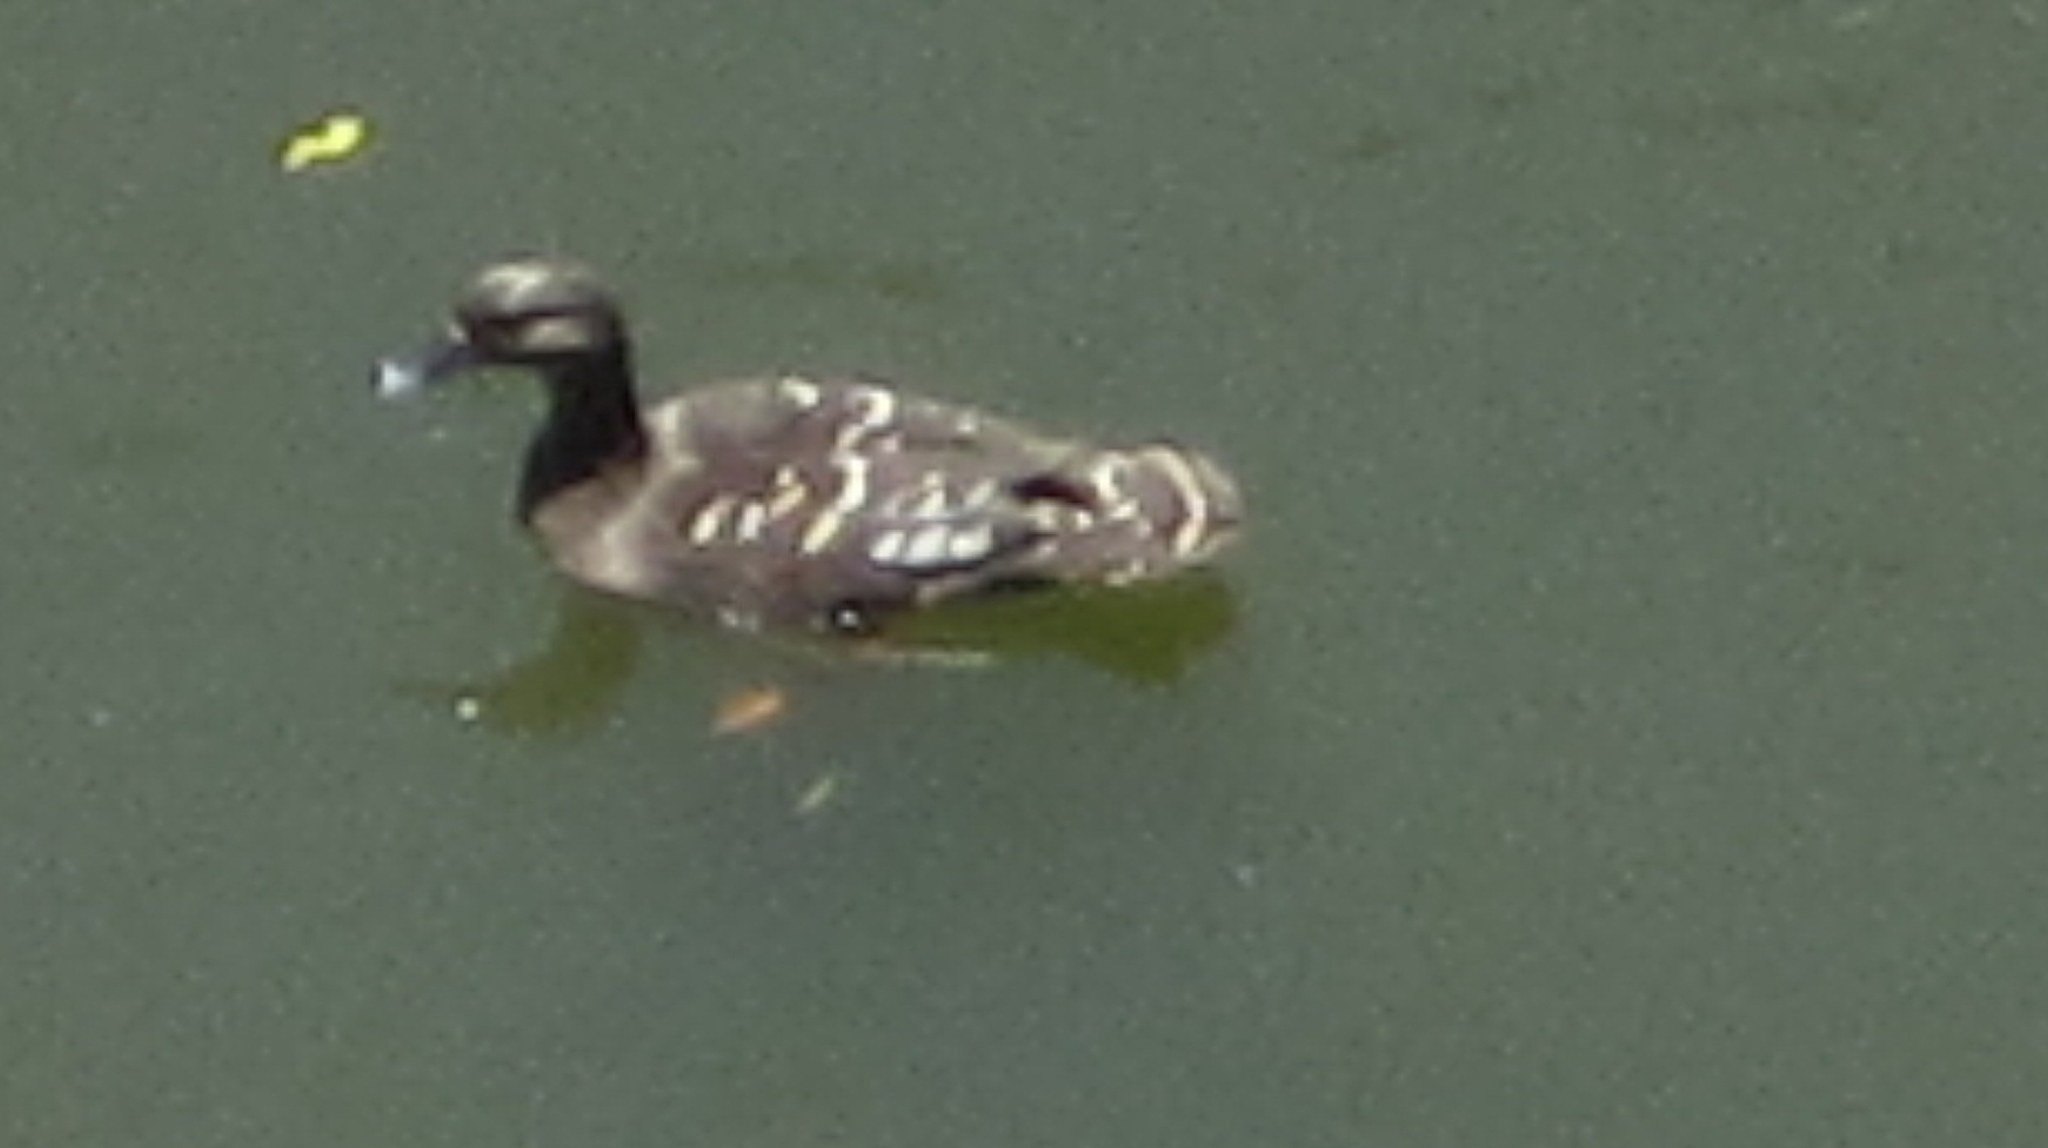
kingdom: Animalia
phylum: Chordata
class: Aves
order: Anseriformes
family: Anatidae
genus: Anas
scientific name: Anas sparsa
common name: African black duck
